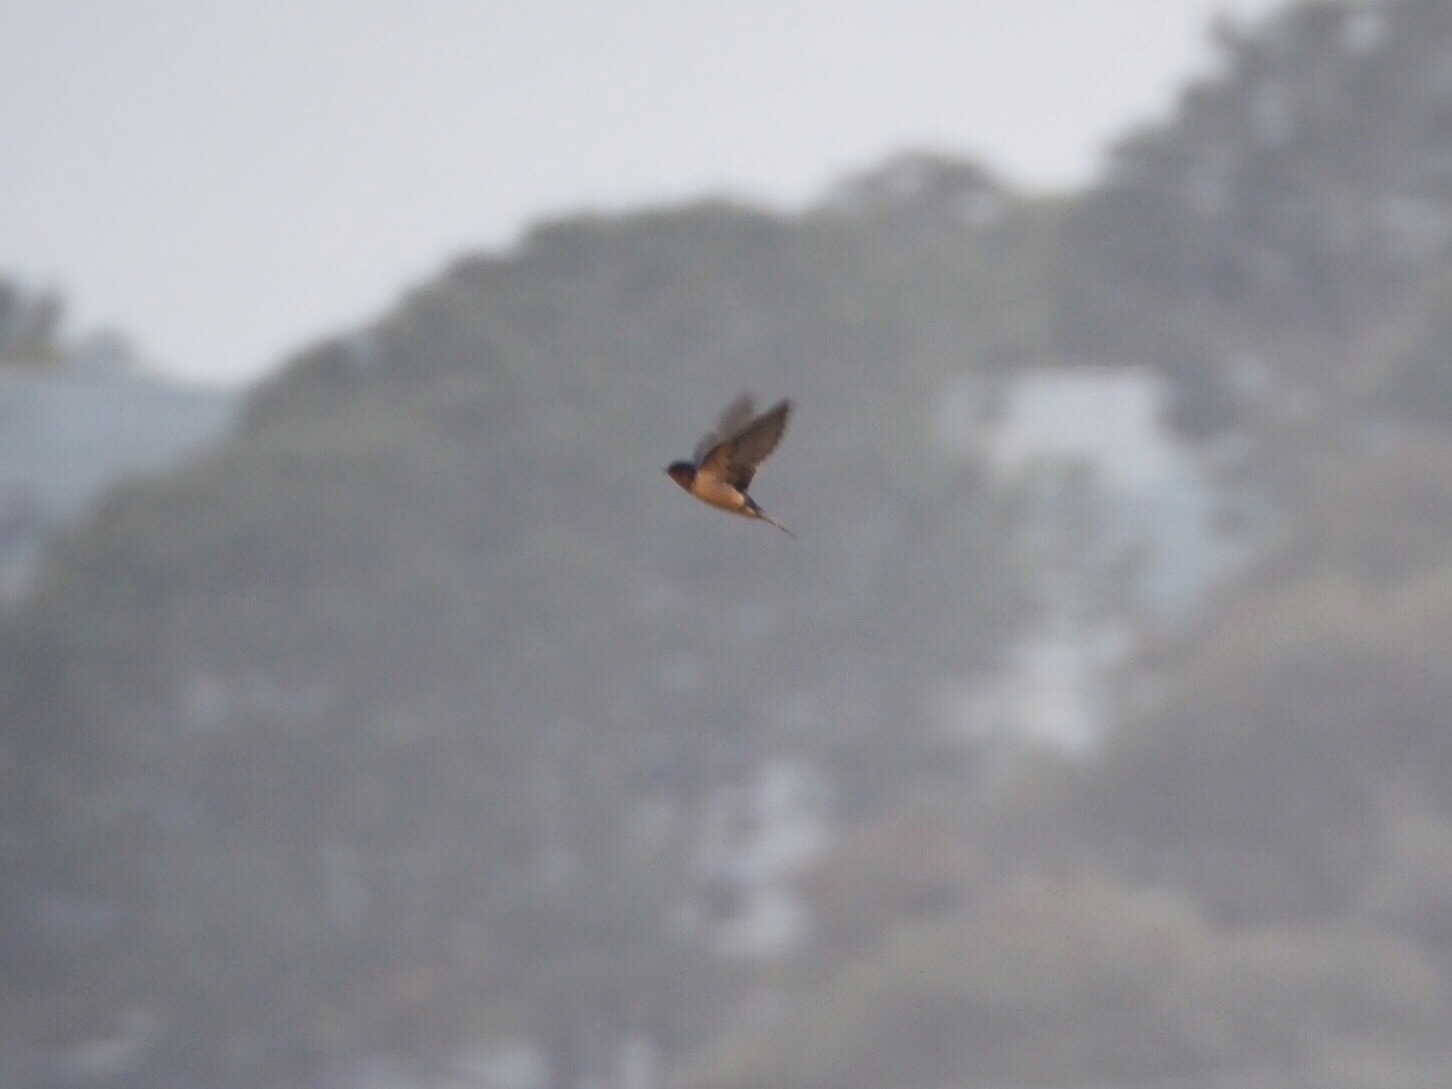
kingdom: Animalia
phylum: Chordata
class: Aves
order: Passeriformes
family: Hirundinidae
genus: Hirundo
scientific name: Hirundo rustica
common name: Barn swallow
